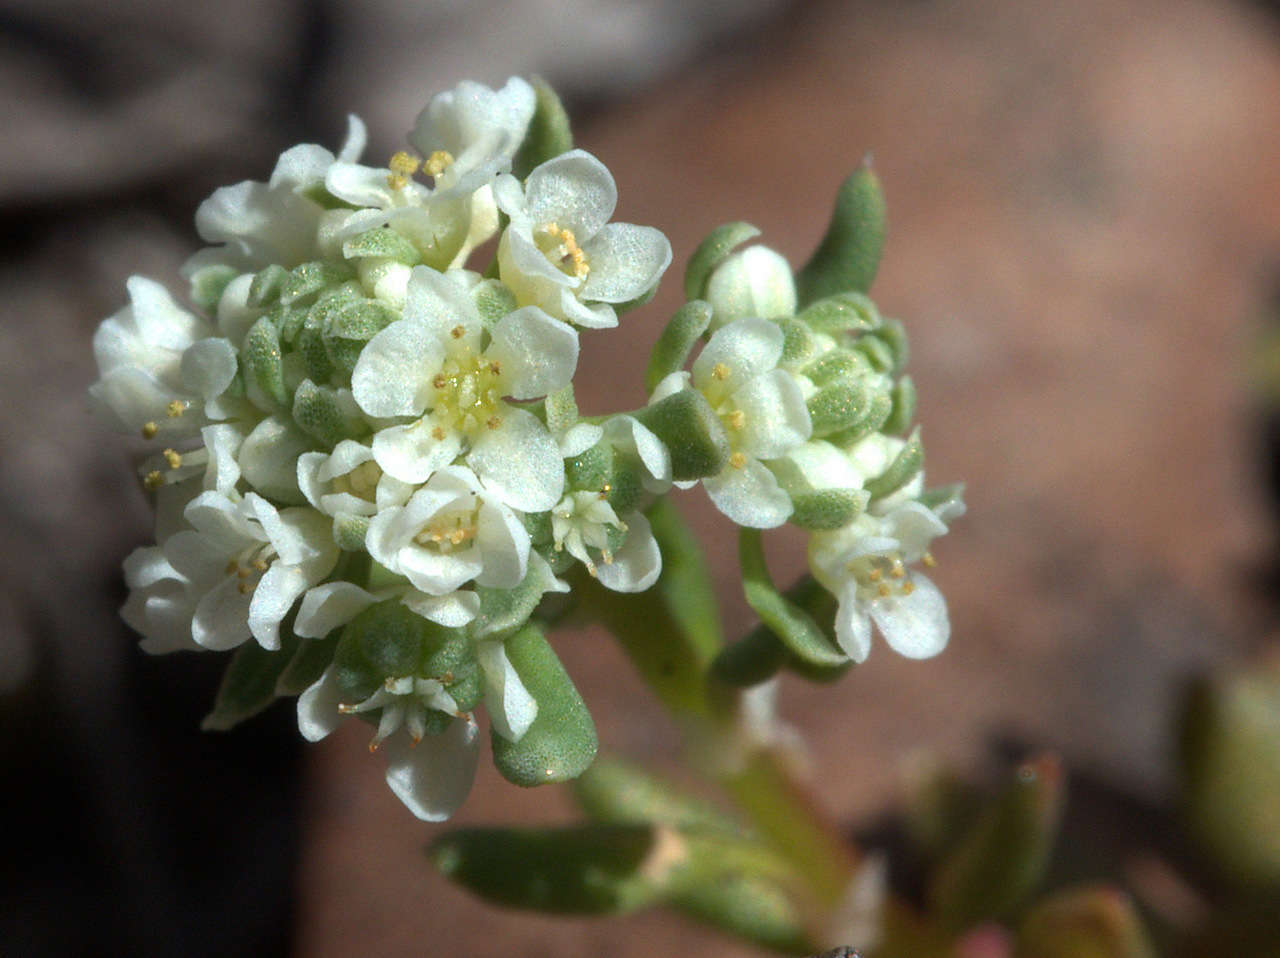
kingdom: Plantae
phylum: Tracheophyta
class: Magnoliopsida
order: Malpighiales
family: Phyllanthaceae
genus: Poranthera
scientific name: Poranthera microphylla
